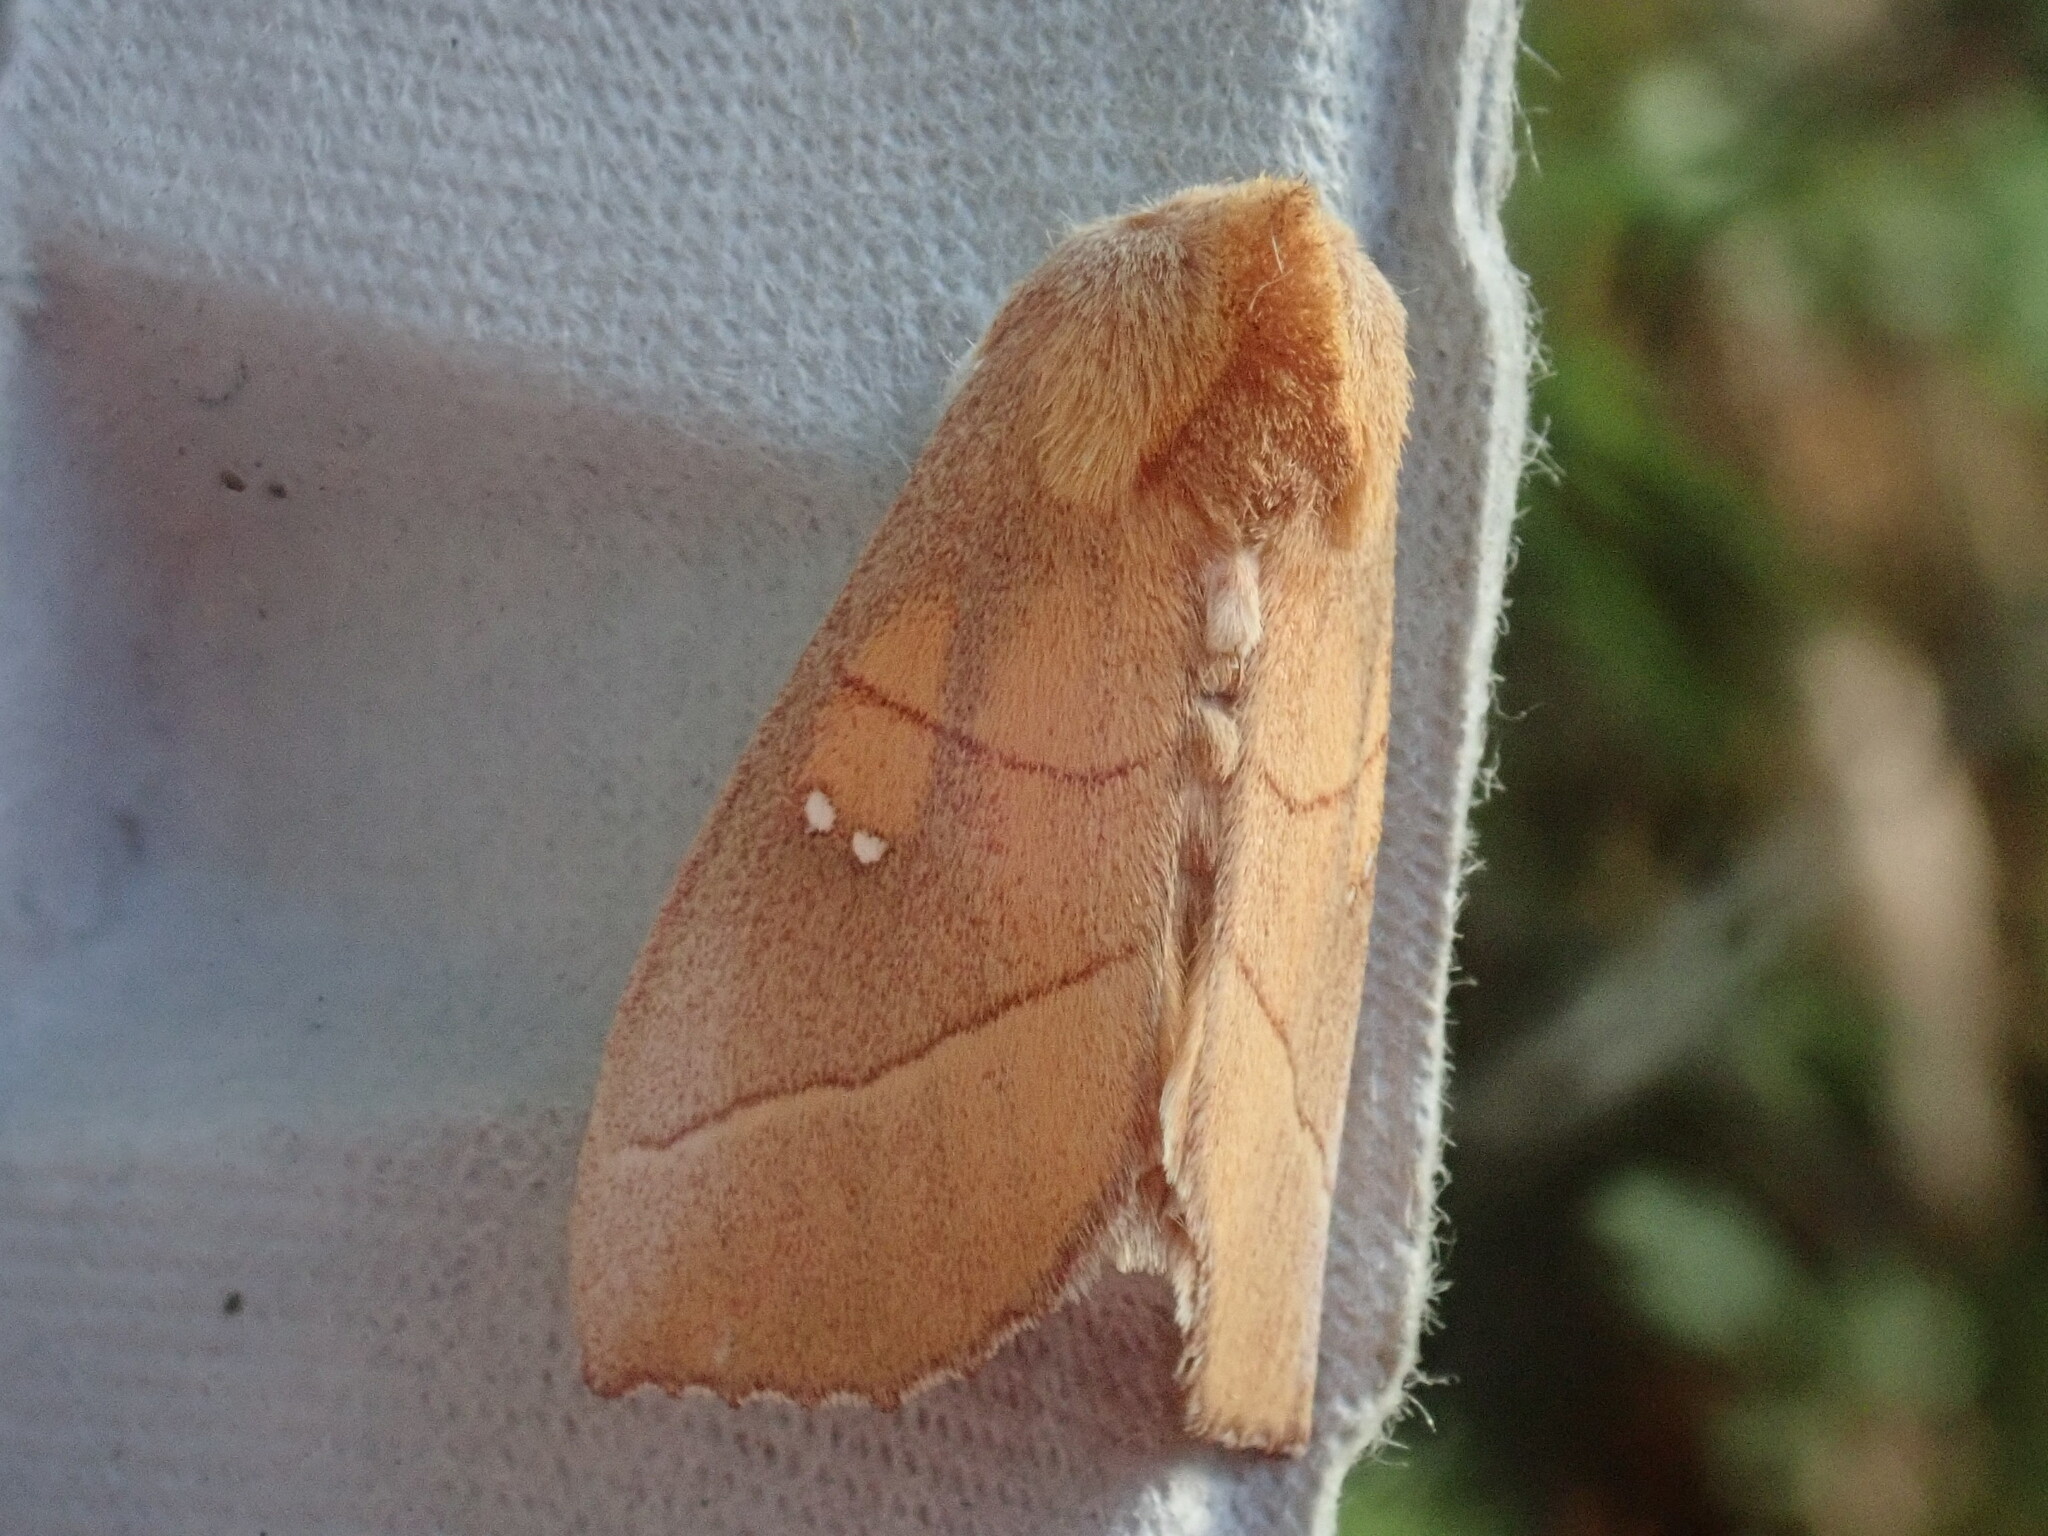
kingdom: Animalia
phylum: Arthropoda
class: Insecta
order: Lepidoptera
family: Notodontidae
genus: Nadata
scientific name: Nadata gibbosa
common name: White-dotted prominent
